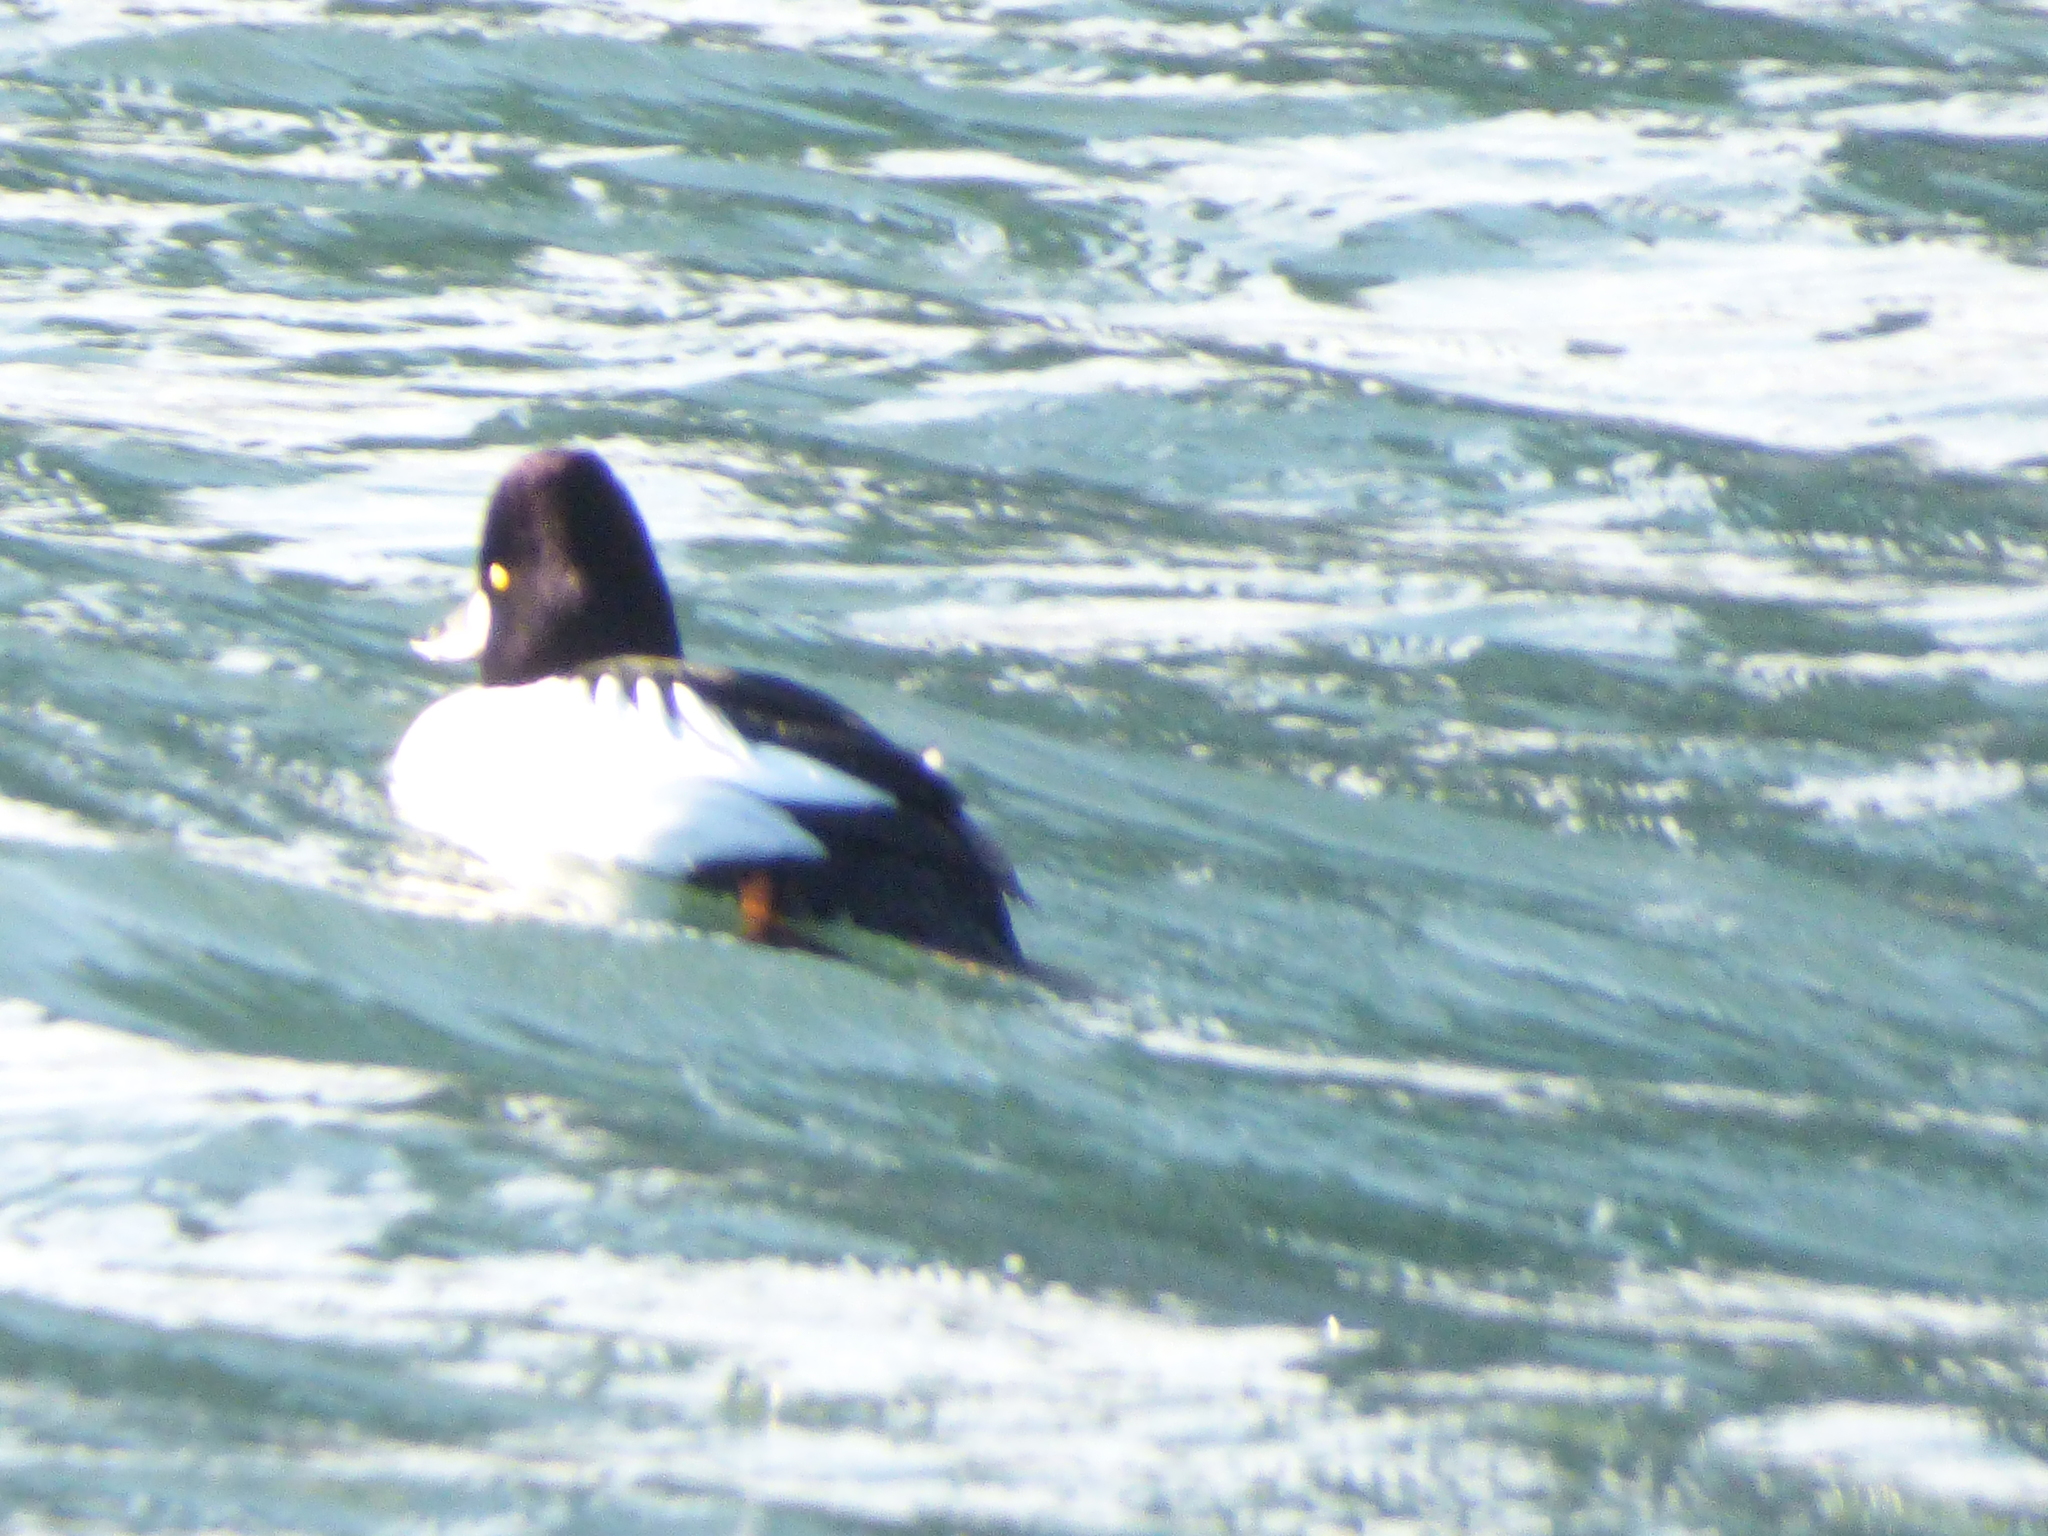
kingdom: Animalia
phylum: Chordata
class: Aves
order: Anseriformes
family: Anatidae
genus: Bucephala
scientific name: Bucephala clangula
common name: Common goldeneye
